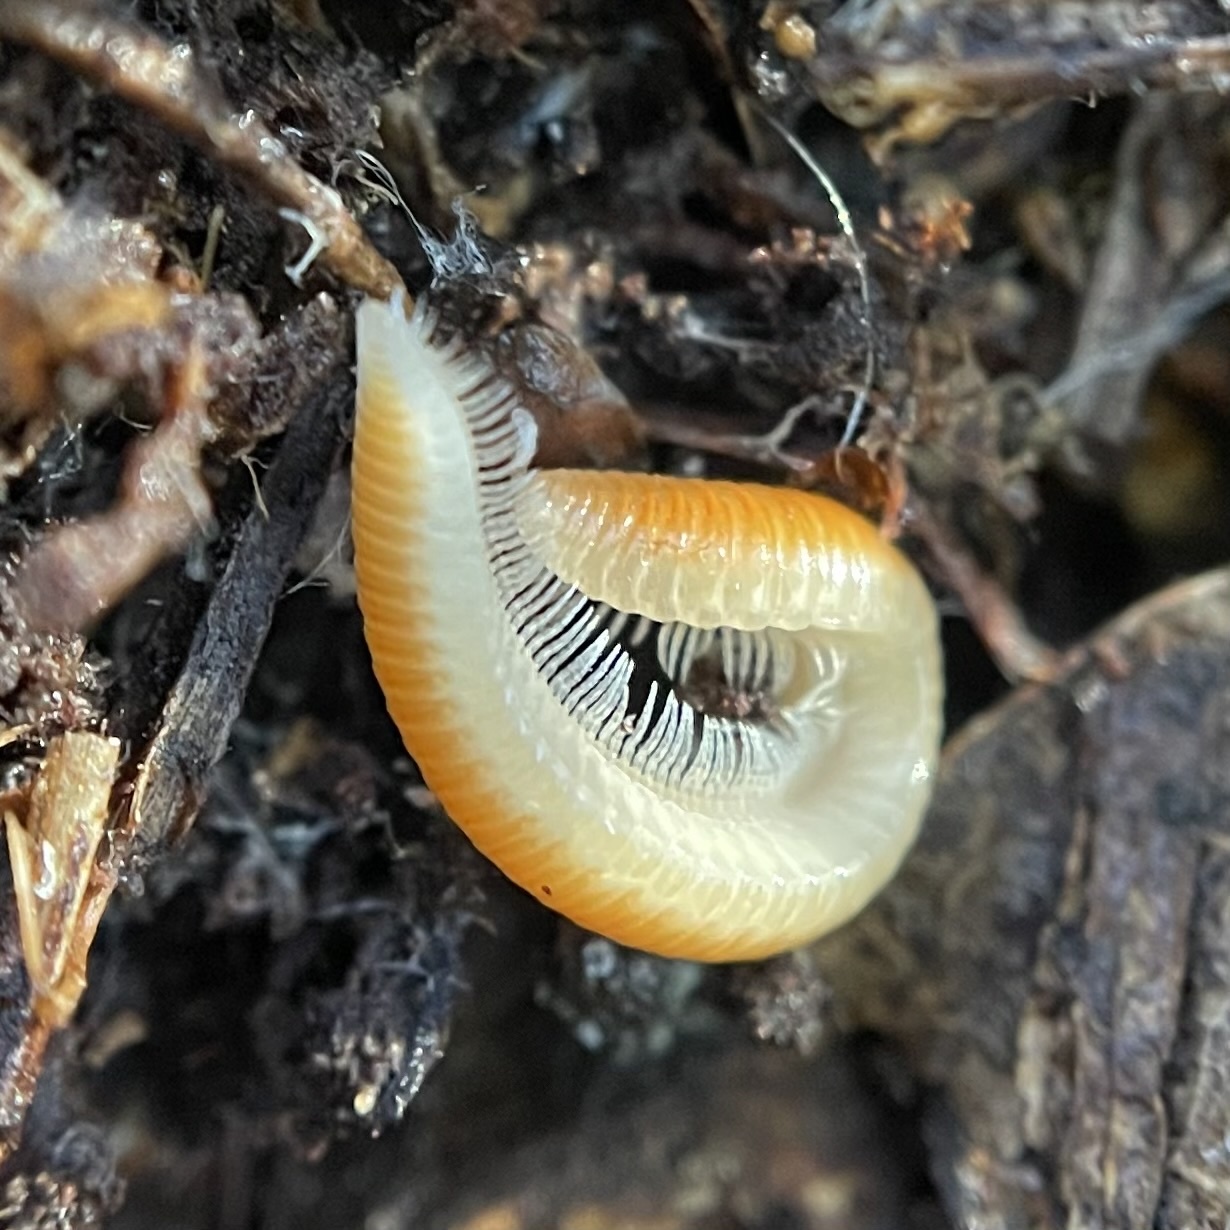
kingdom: Animalia
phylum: Arthropoda
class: Diplopoda
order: Polyzoniida
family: Polyzoniidae
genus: Buzonium
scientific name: Buzonium crassipes
